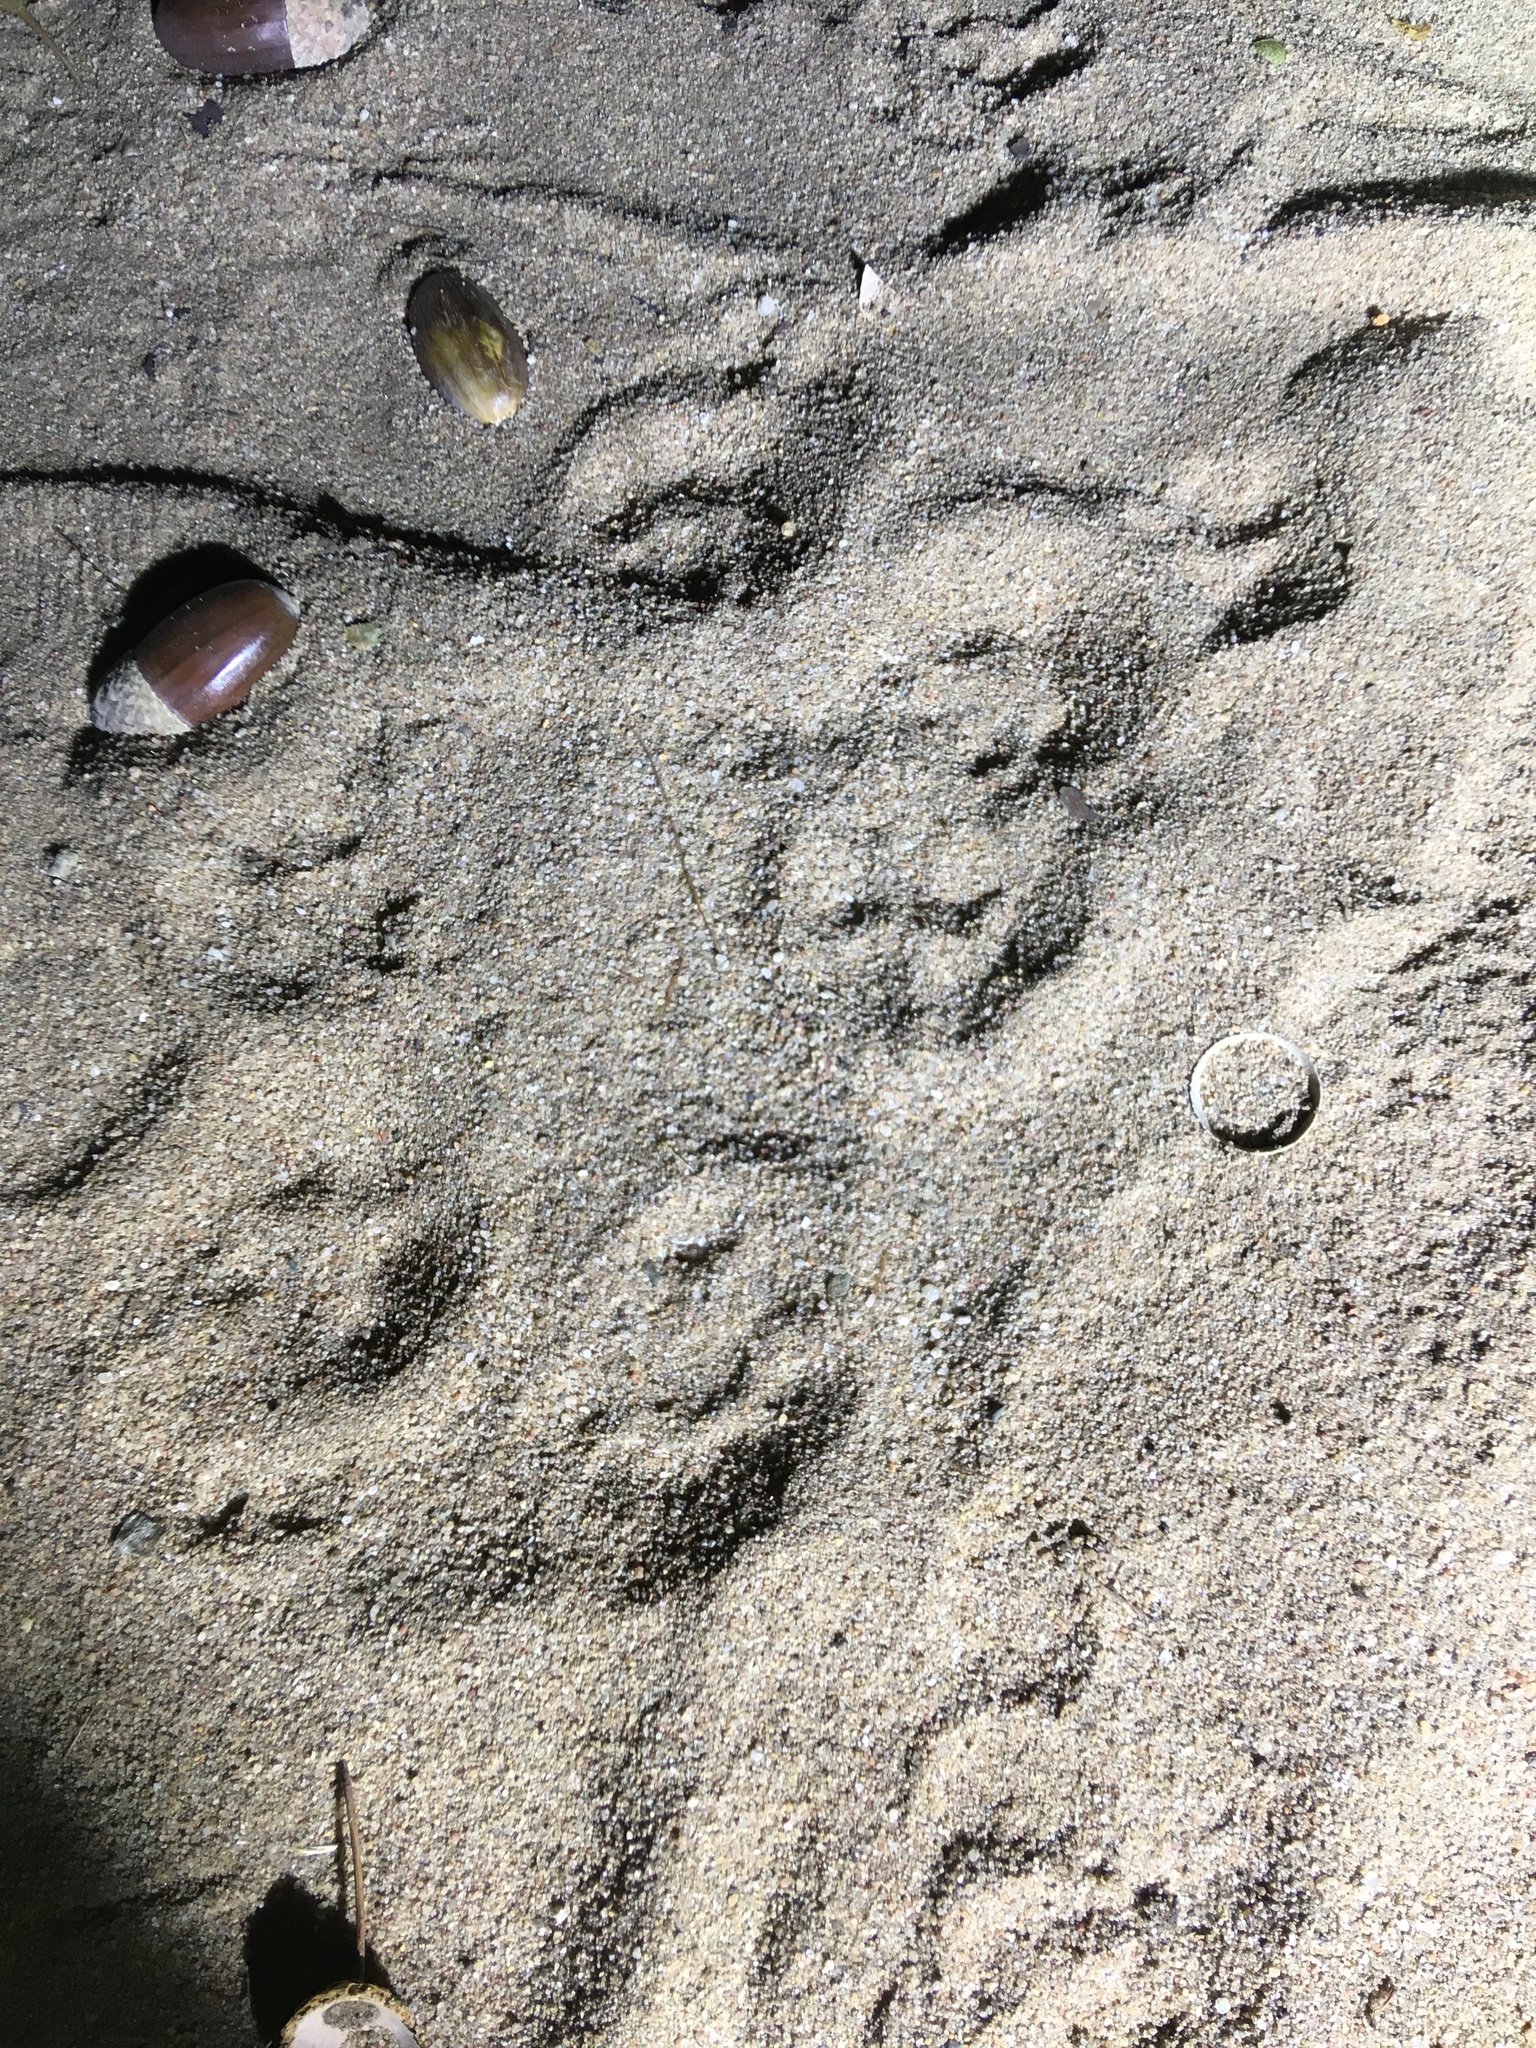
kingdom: Animalia
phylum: Chordata
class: Mammalia
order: Carnivora
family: Viverridae
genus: Genetta
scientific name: Genetta
